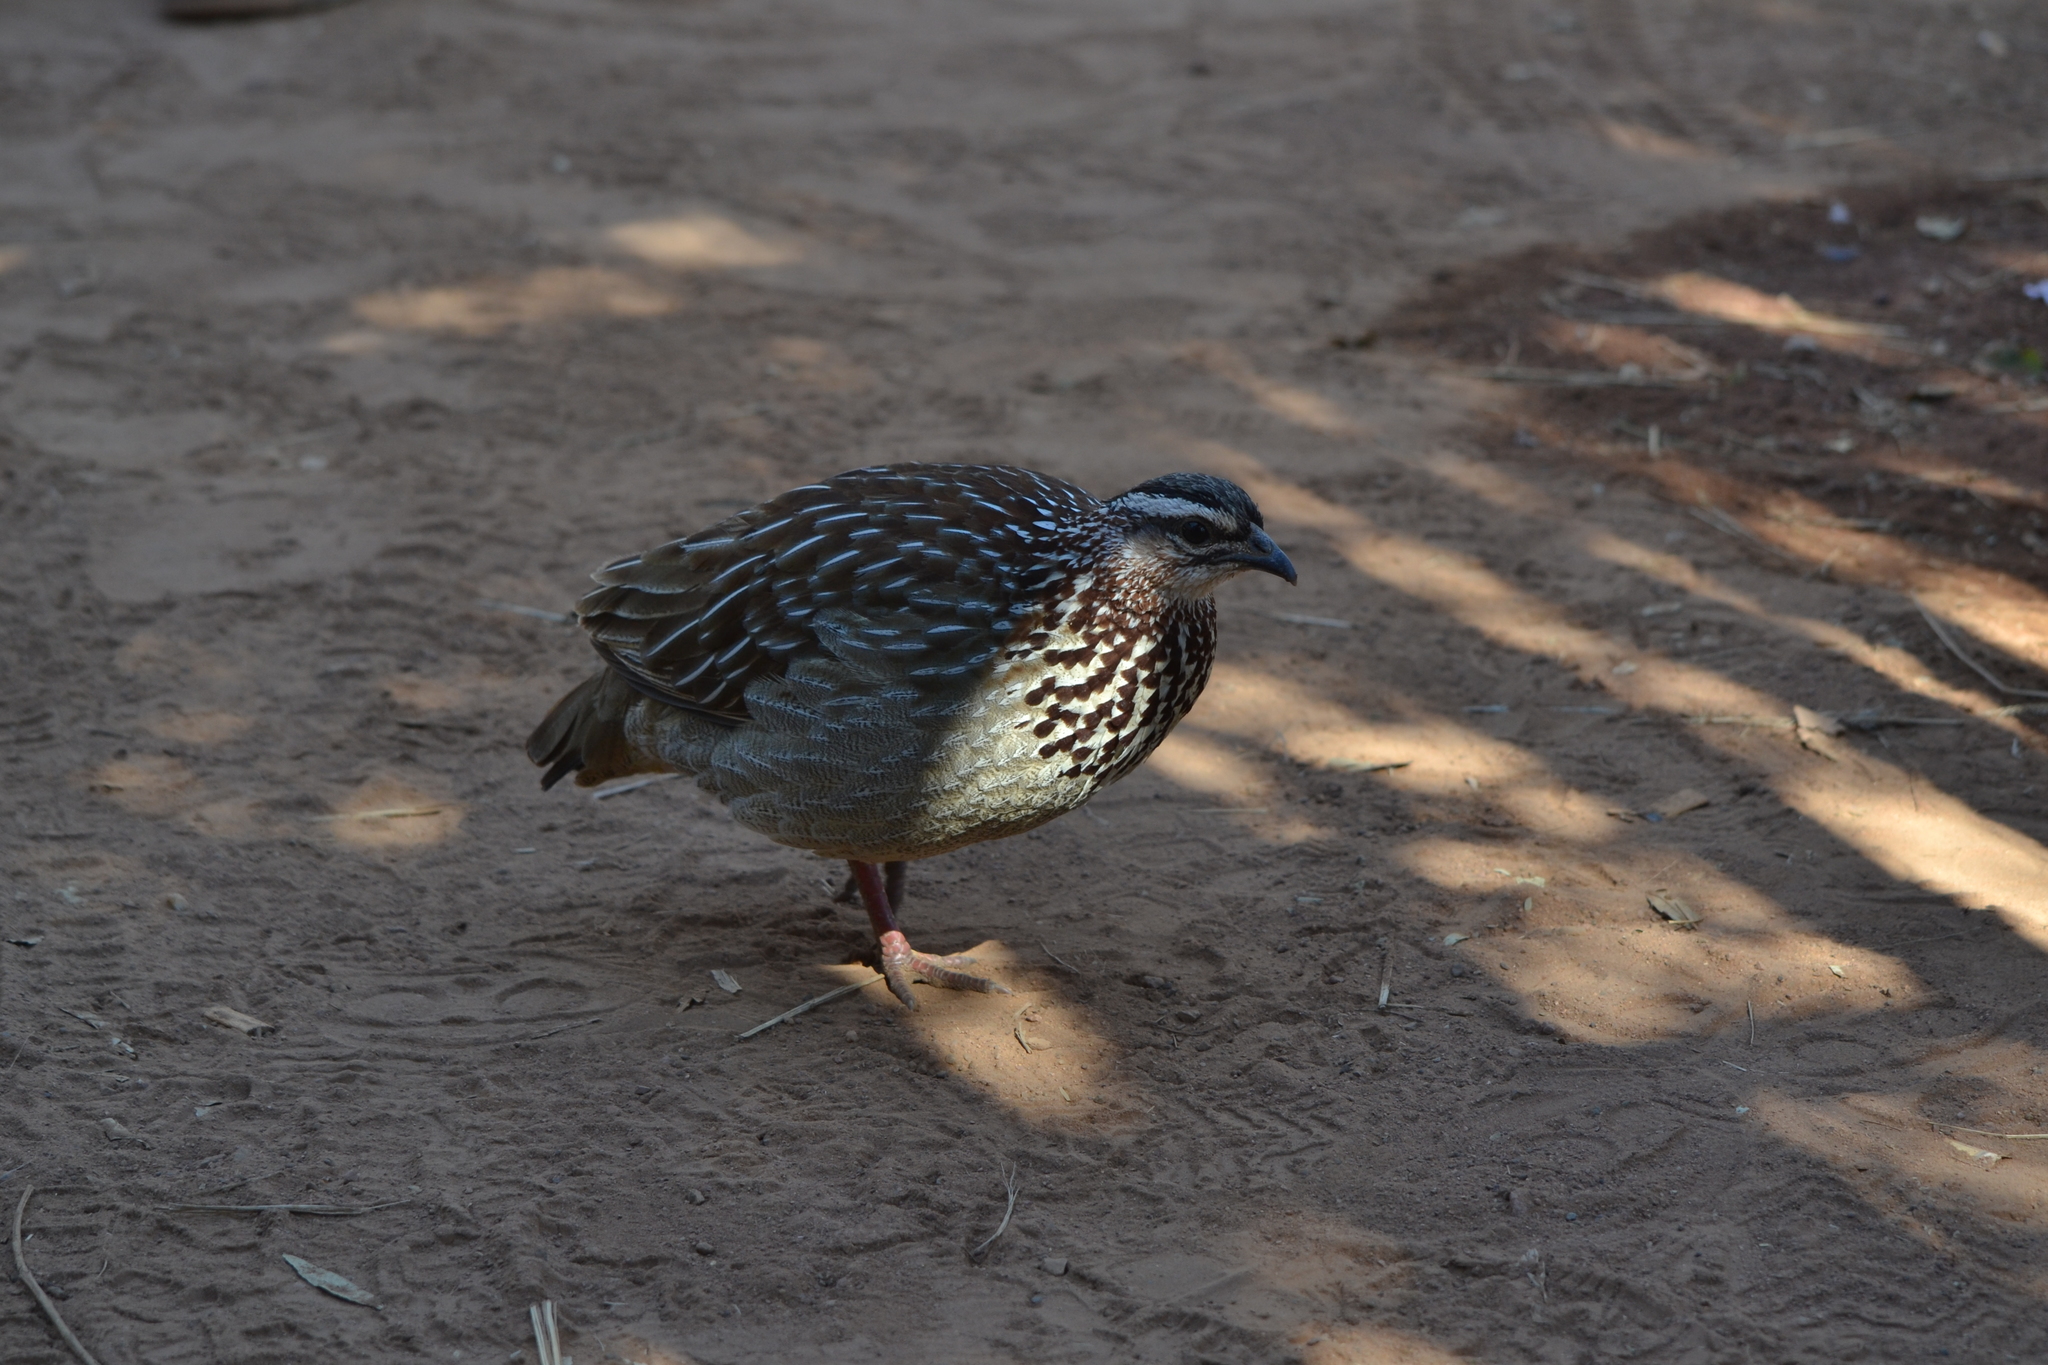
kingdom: Animalia
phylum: Chordata
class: Aves
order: Galliformes
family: Phasianidae
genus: Ortygornis
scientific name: Ortygornis sephaena
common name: Crested francolin
